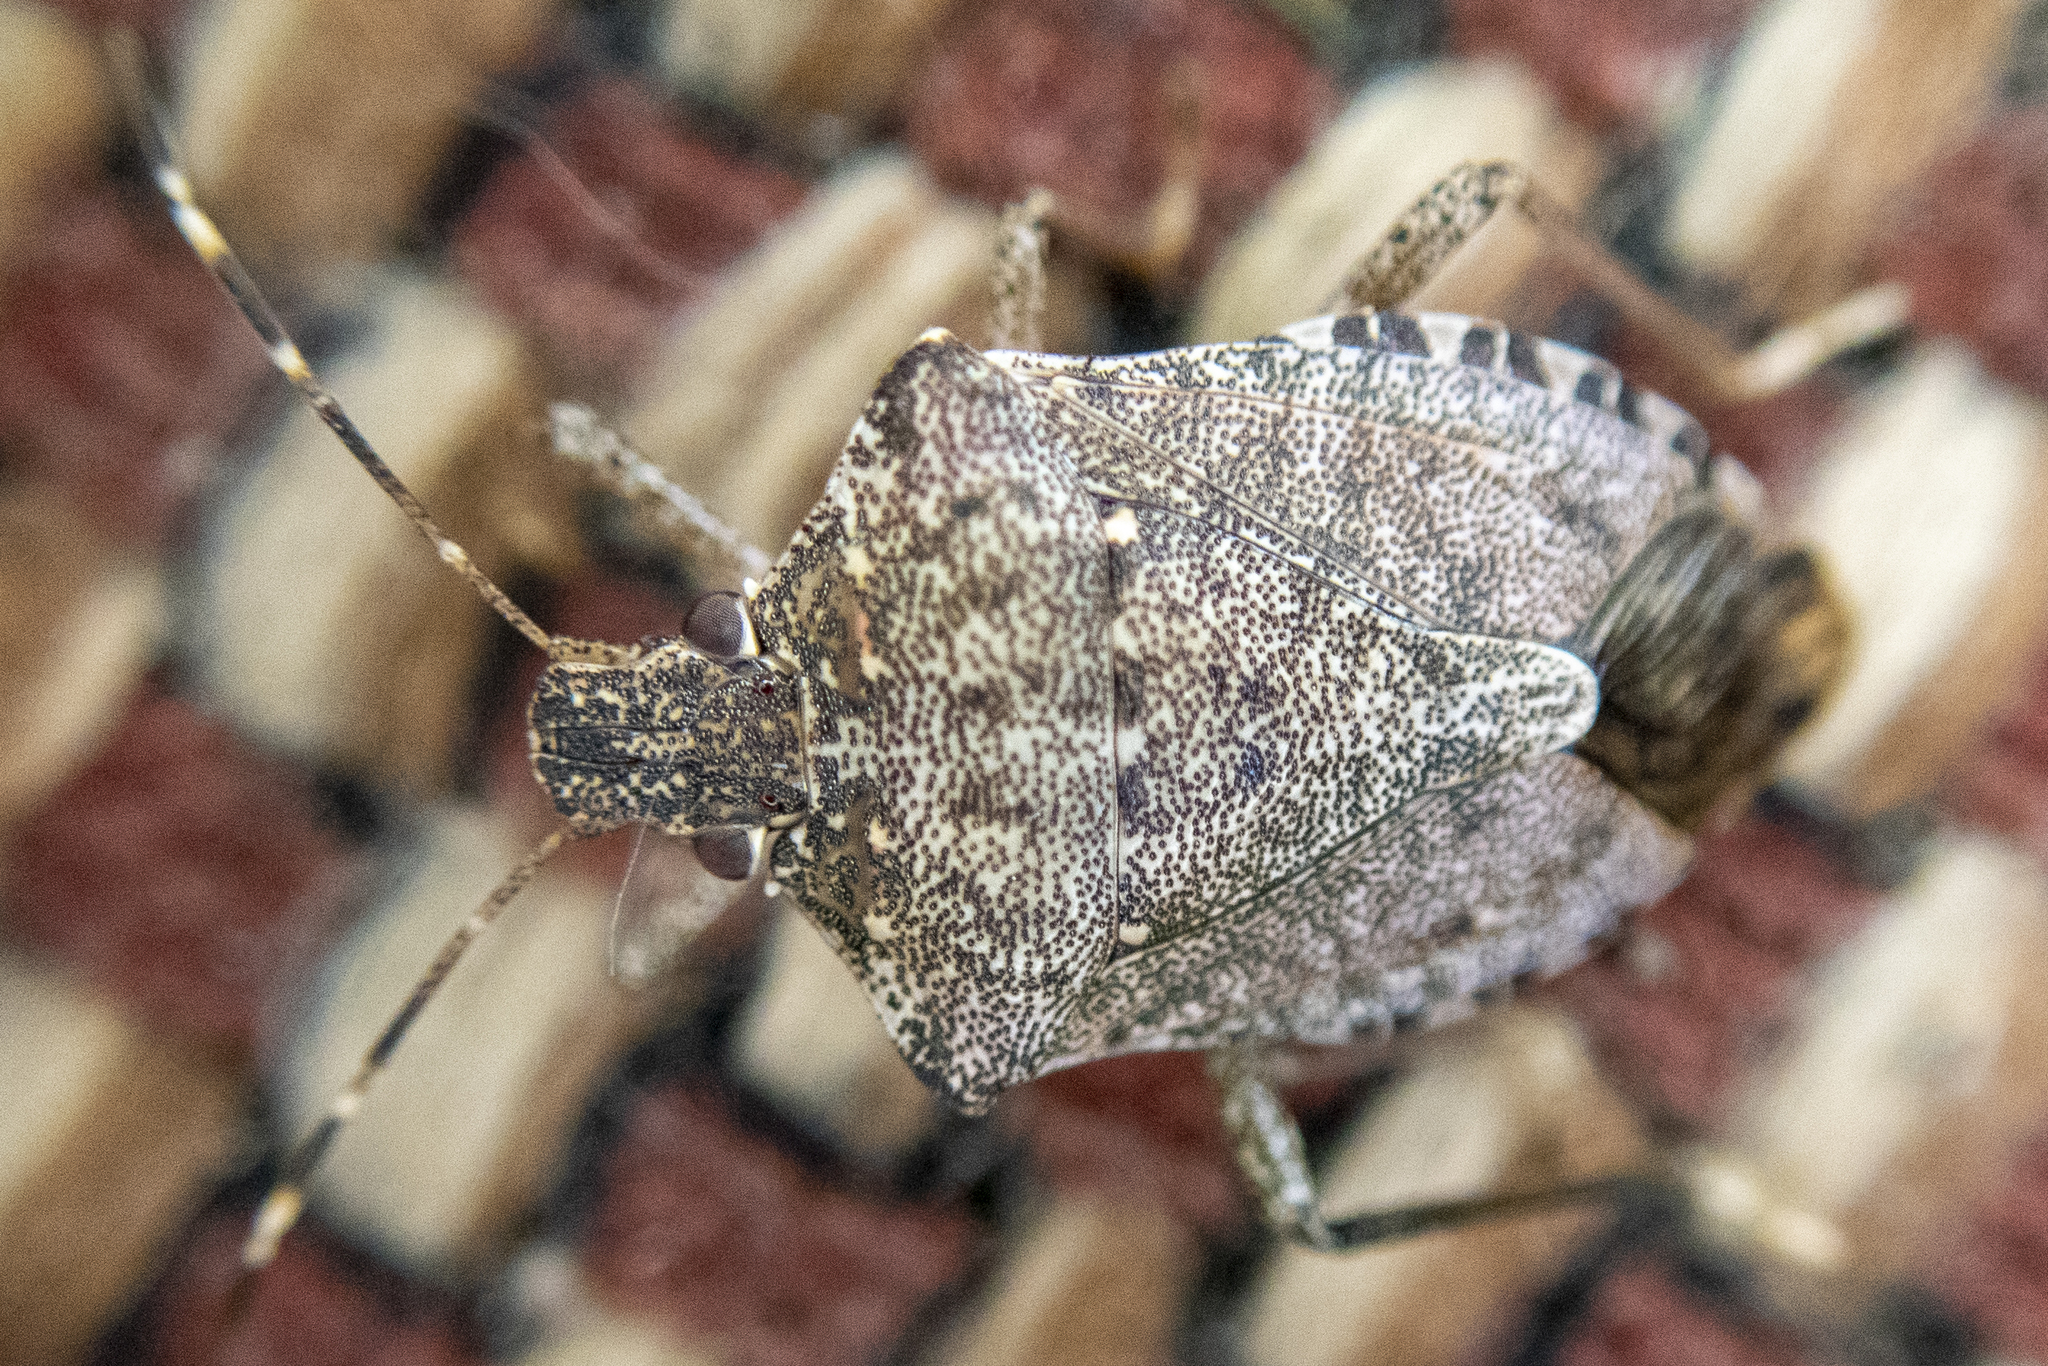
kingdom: Animalia
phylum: Arthropoda
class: Insecta
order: Hemiptera
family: Pentatomidae
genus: Halyomorpha
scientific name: Halyomorpha halys
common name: Brown marmorated stink bug
